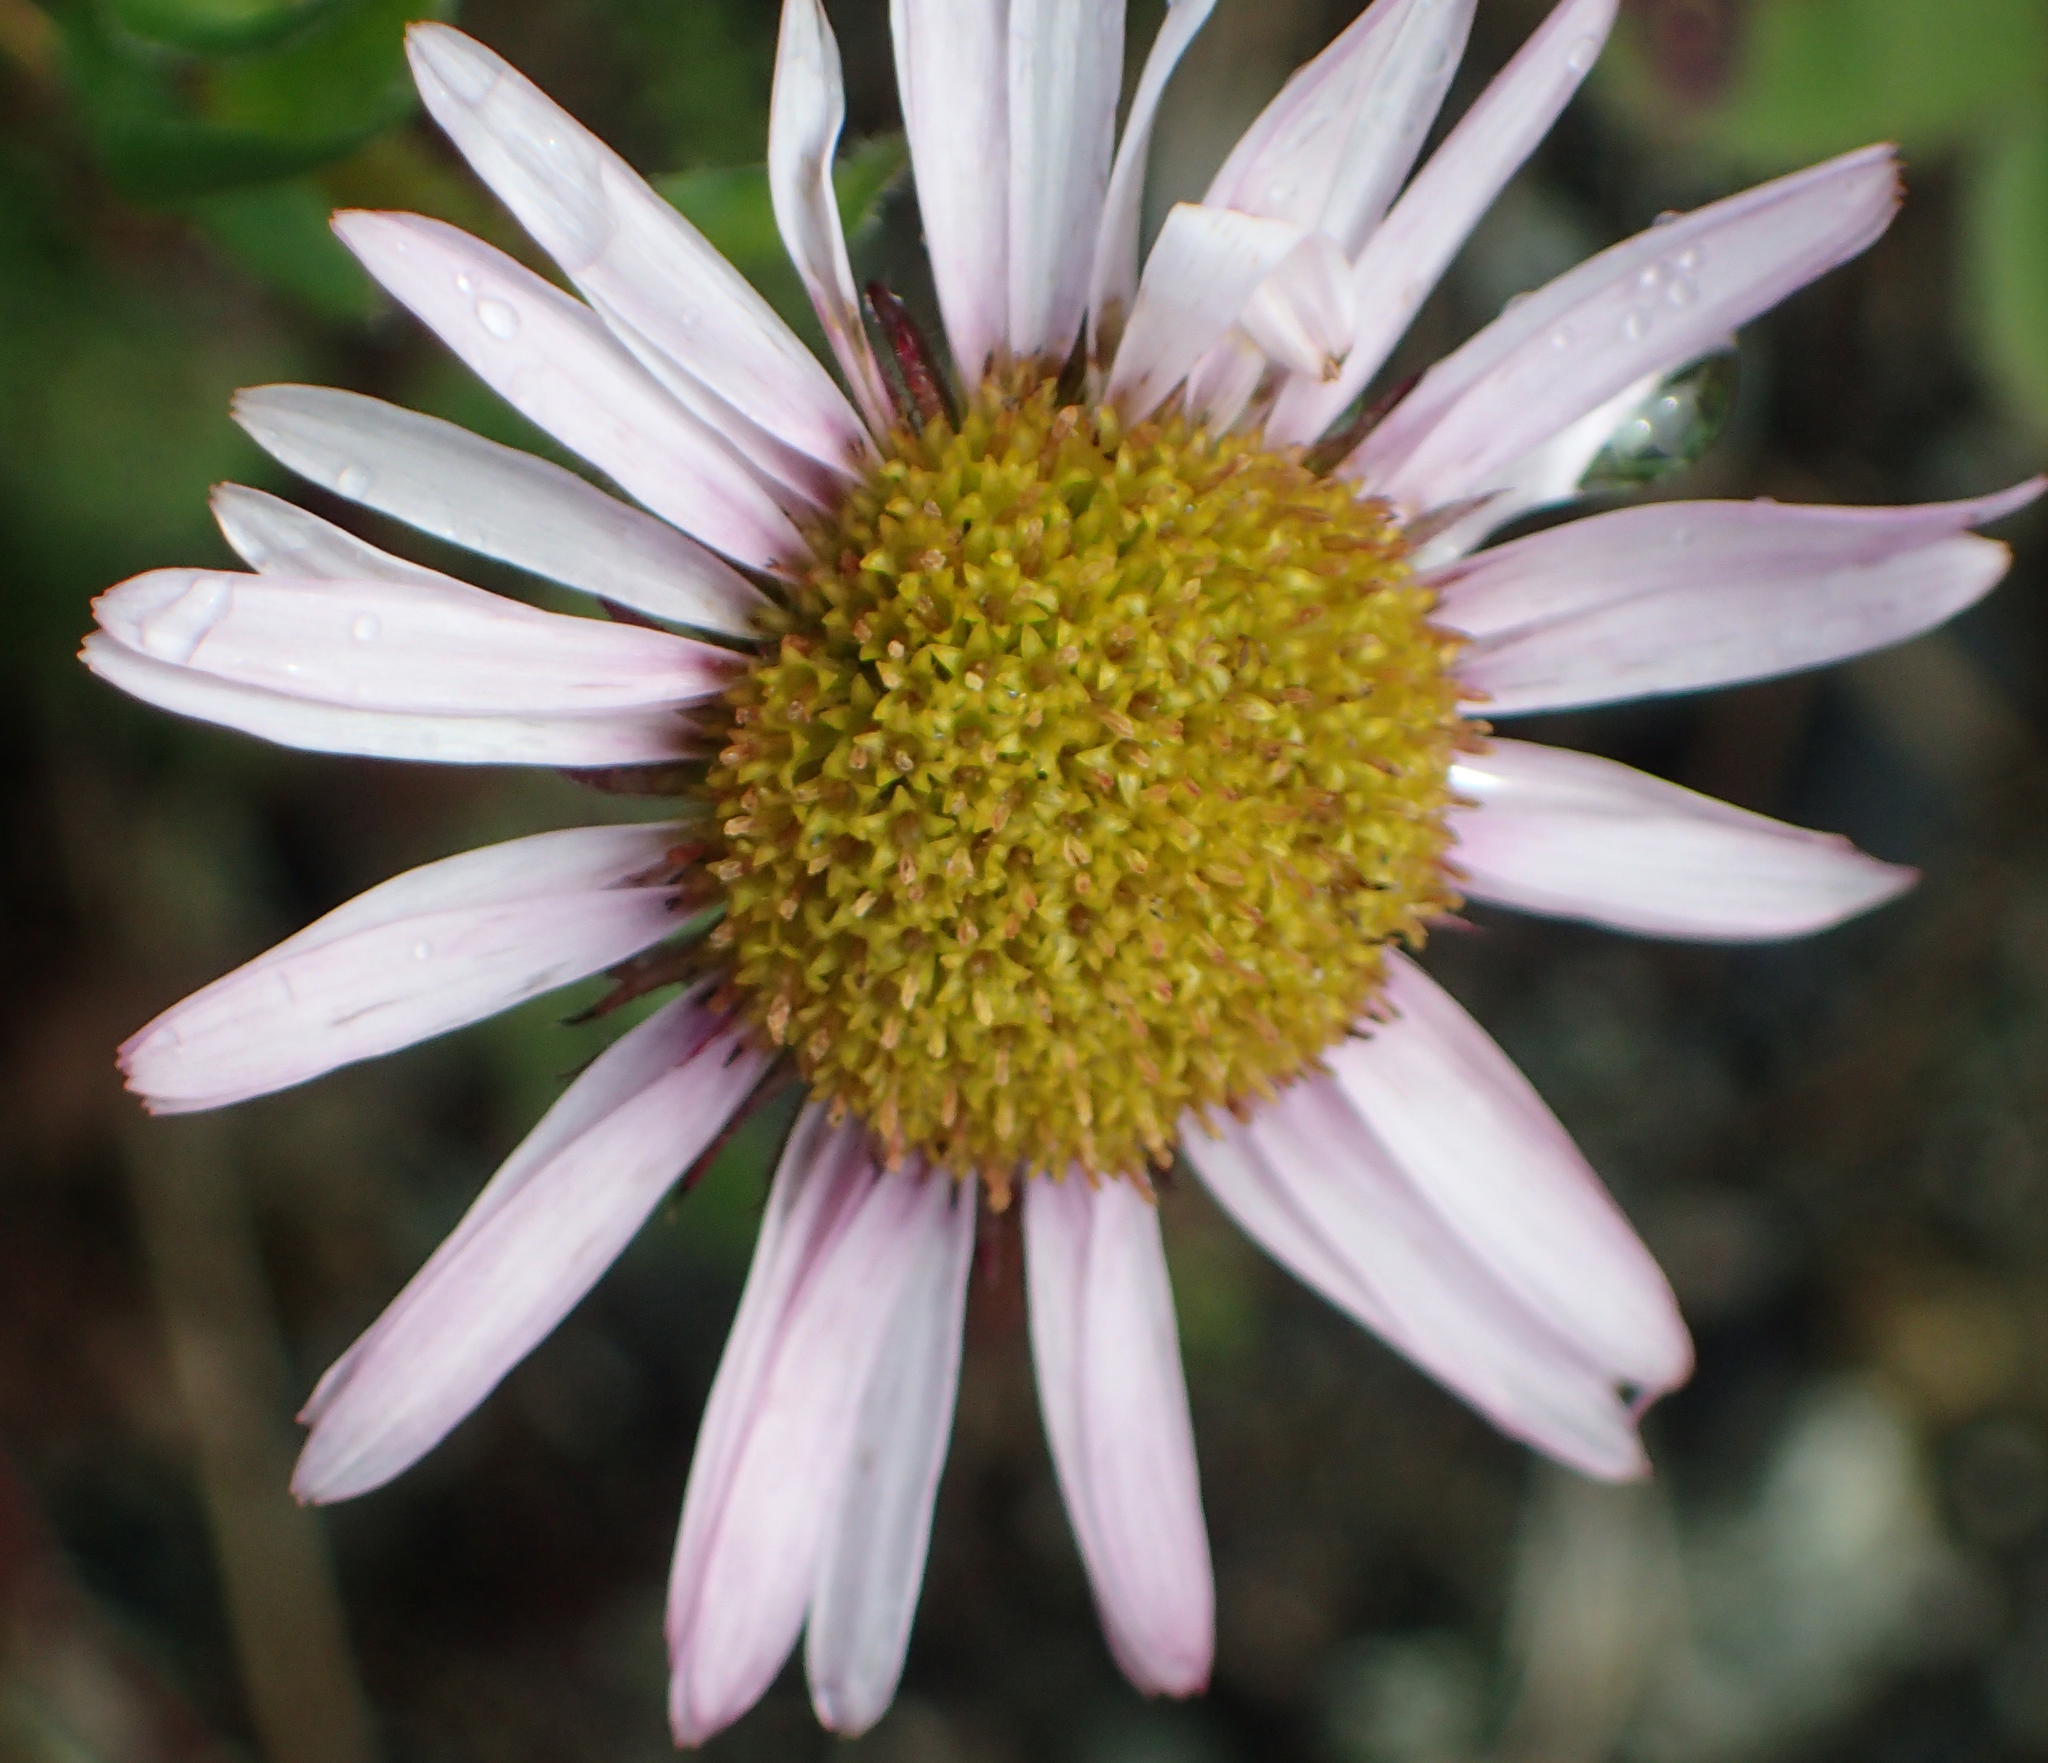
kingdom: Plantae
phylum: Tracheophyta
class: Magnoliopsida
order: Asterales
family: Asteraceae
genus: Aster
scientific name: Aster alpinus
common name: Alpine aster
